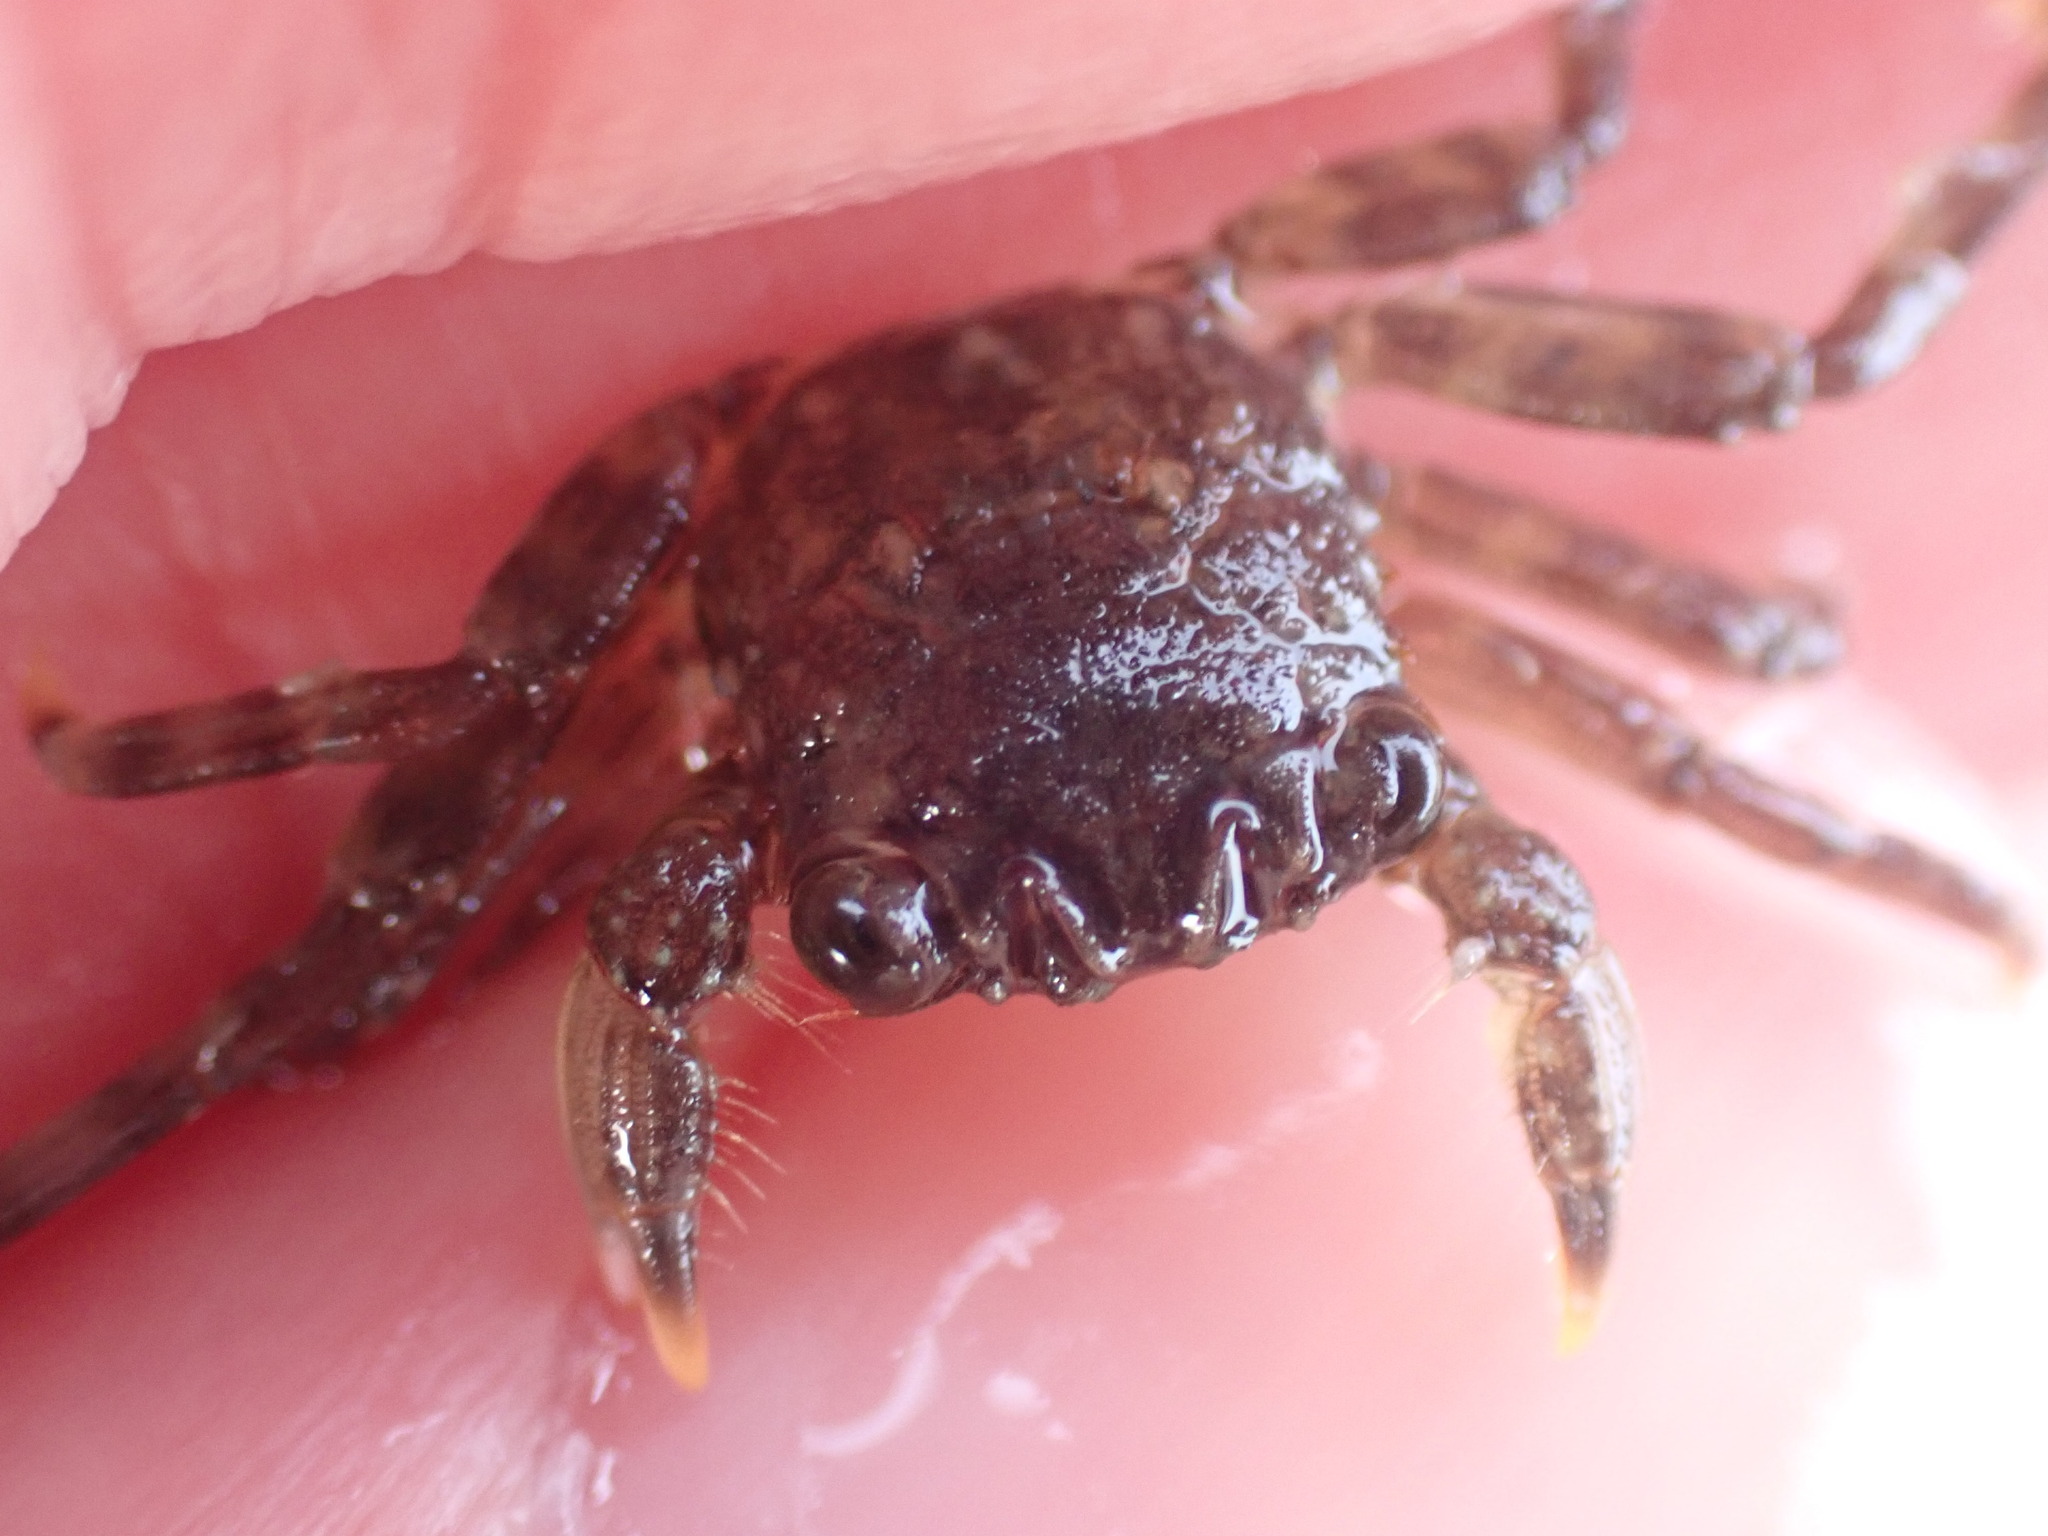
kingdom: Animalia
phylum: Arthropoda
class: Malacostraca
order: Decapoda
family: Plagusiidae
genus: Guinusia
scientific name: Guinusia chabrus
